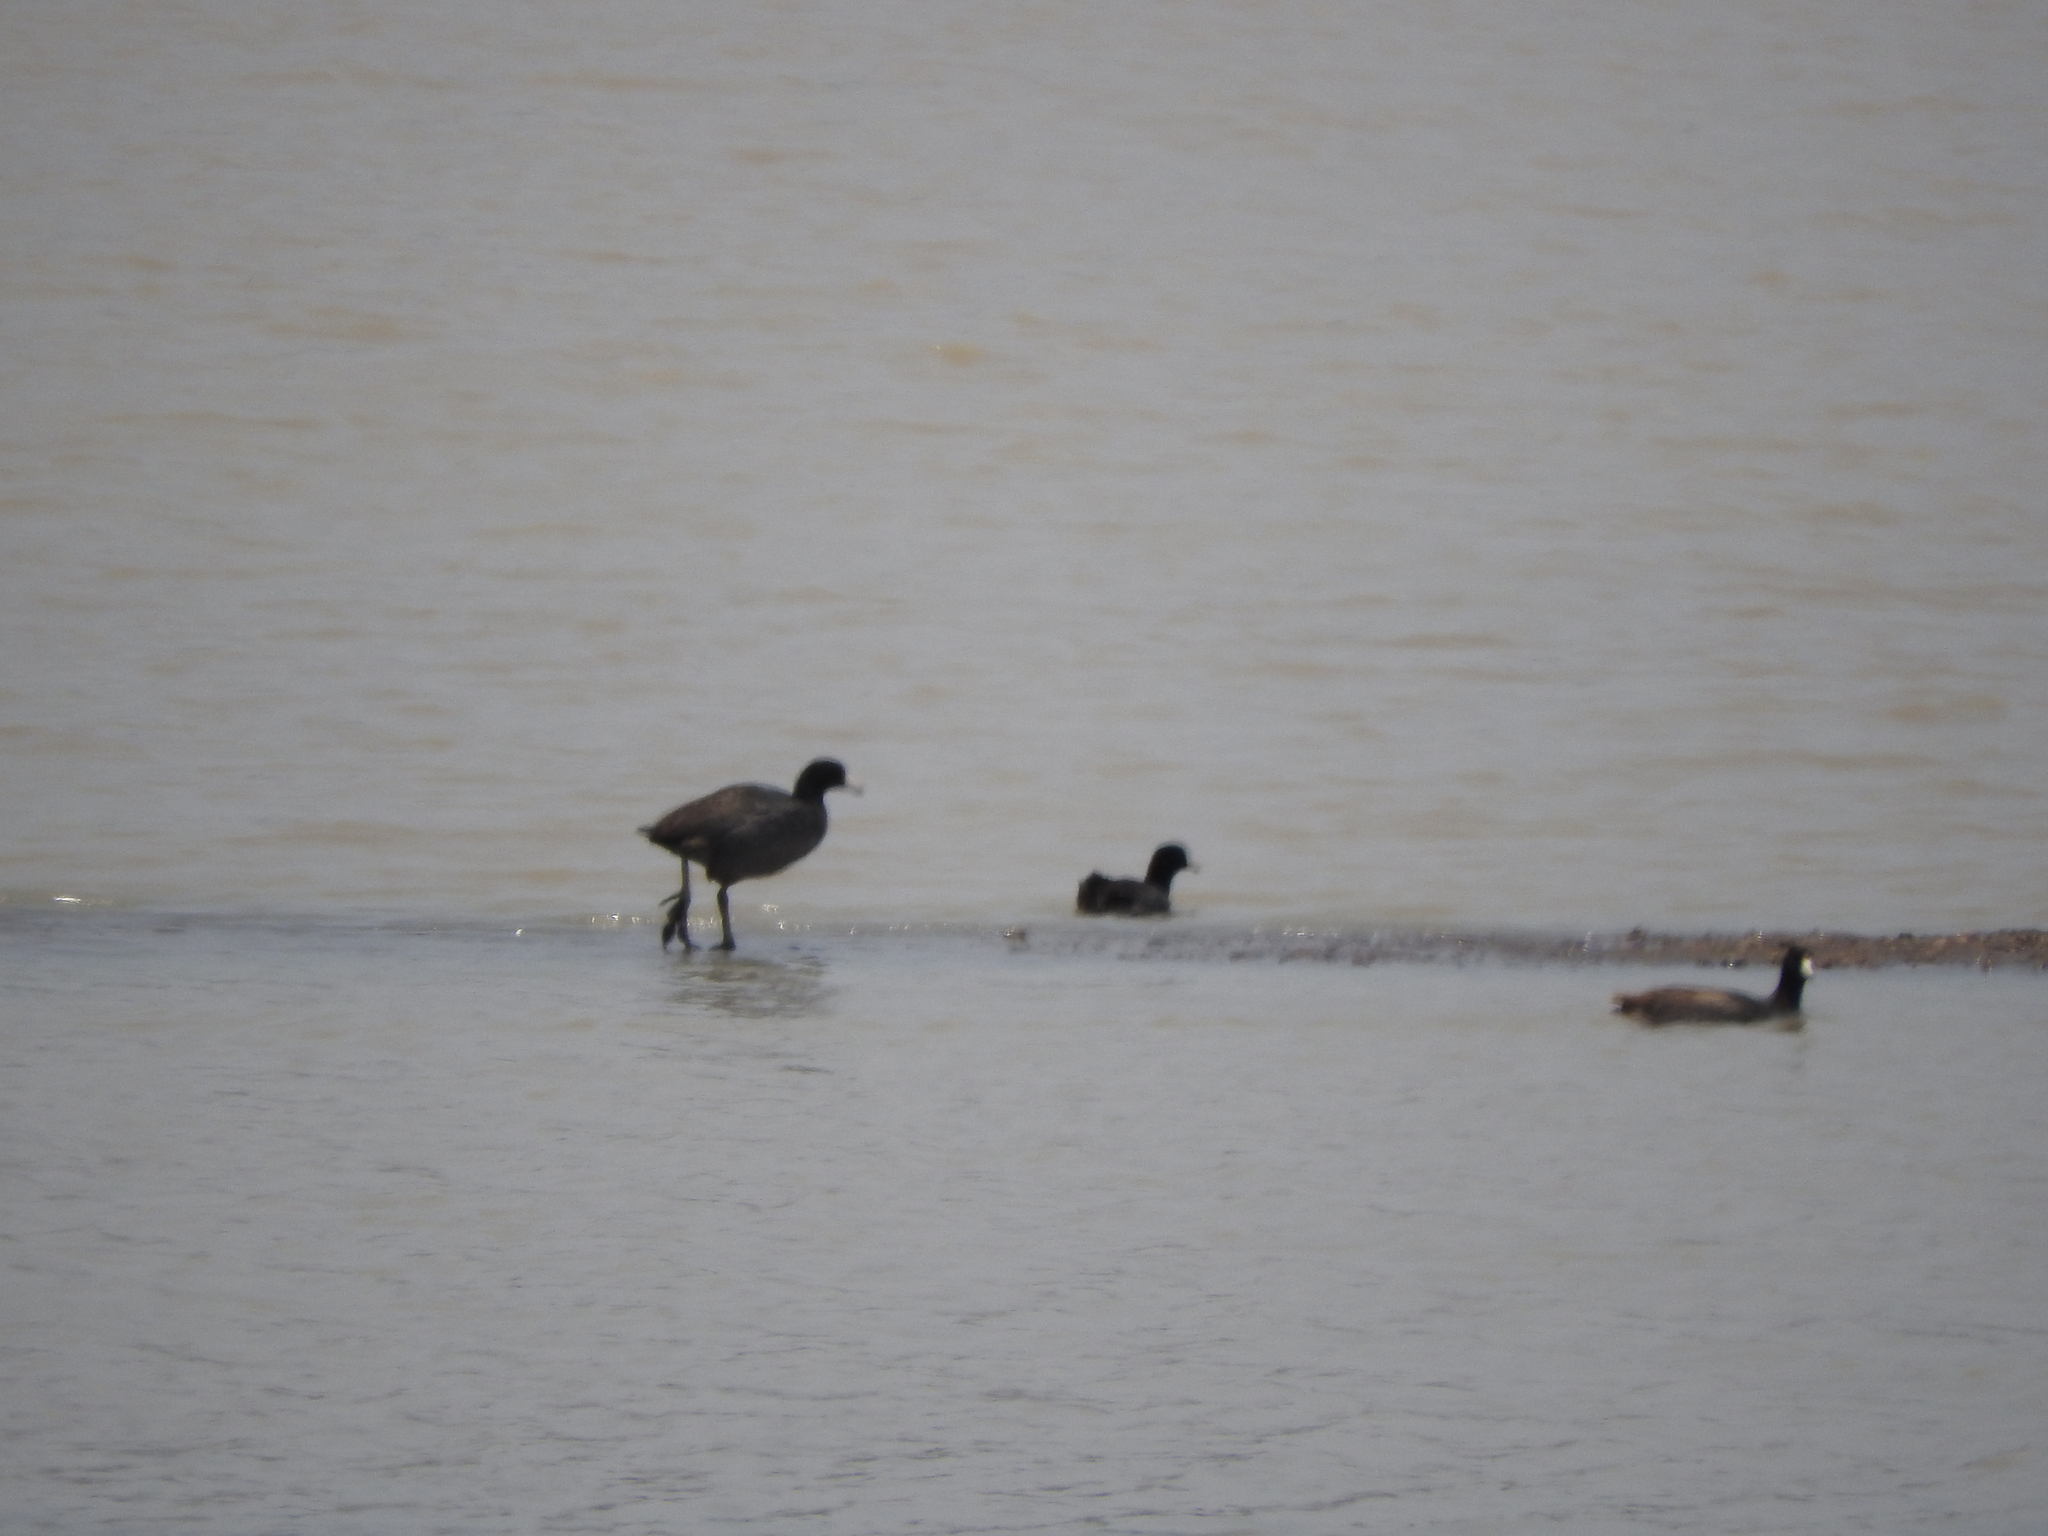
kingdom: Animalia
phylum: Chordata
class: Aves
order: Gruiformes
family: Rallidae
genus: Fulica
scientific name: Fulica americana
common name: American coot
